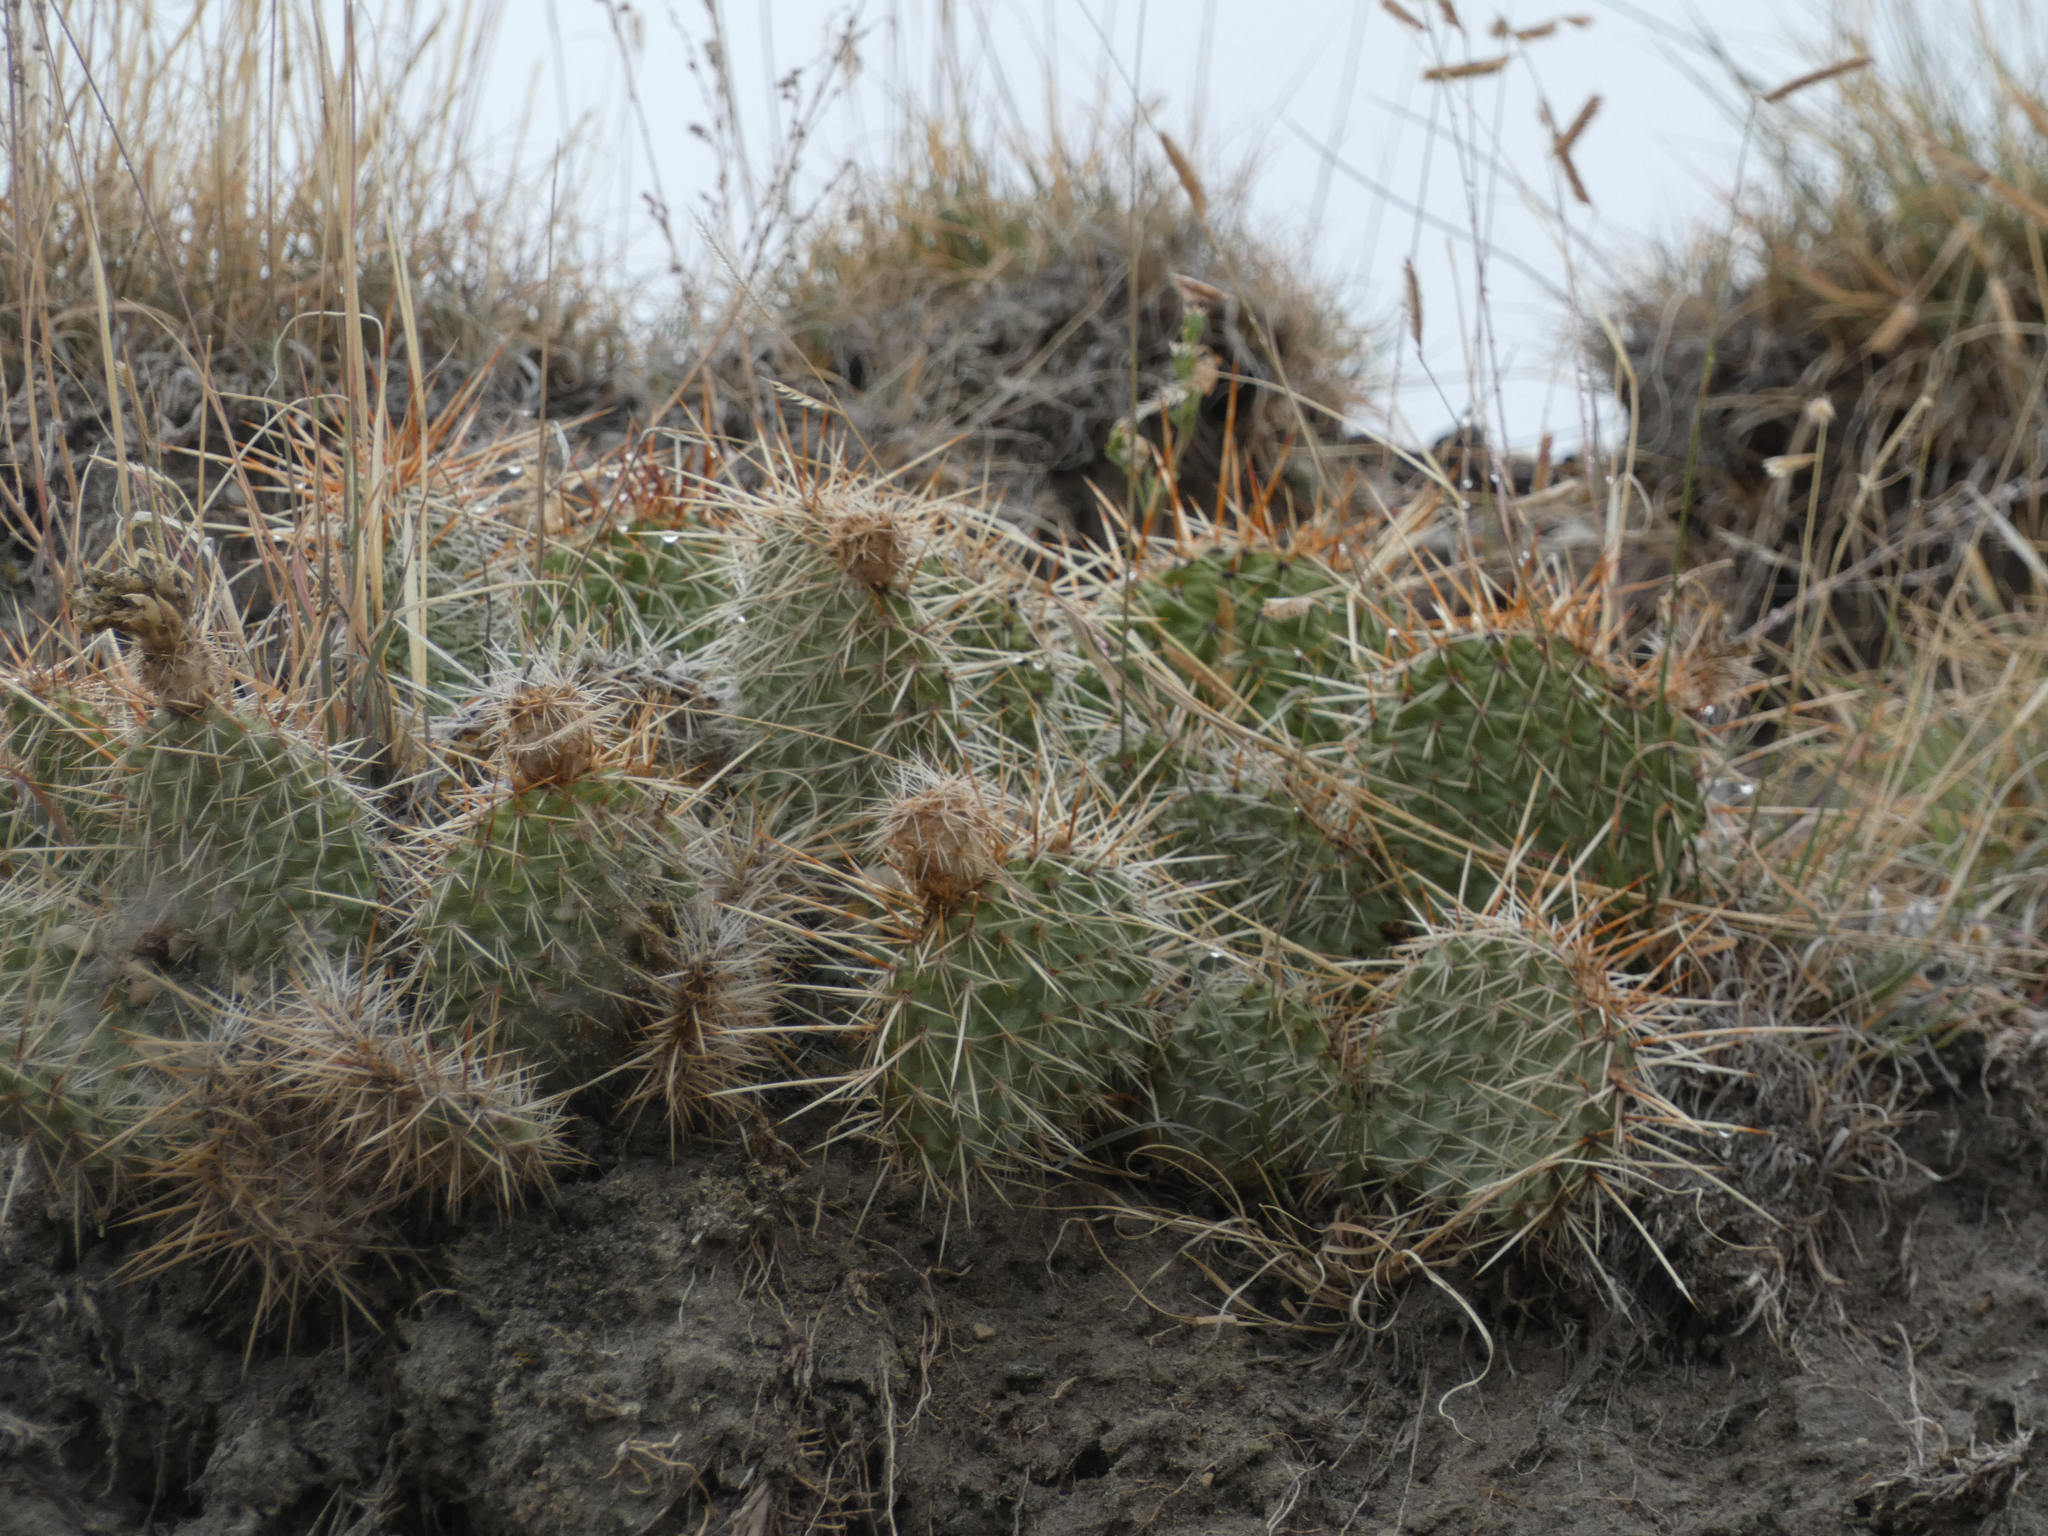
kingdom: Plantae
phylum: Tracheophyta
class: Magnoliopsida
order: Caryophyllales
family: Cactaceae
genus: Opuntia
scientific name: Opuntia polyacantha
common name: Plains prickly-pear
